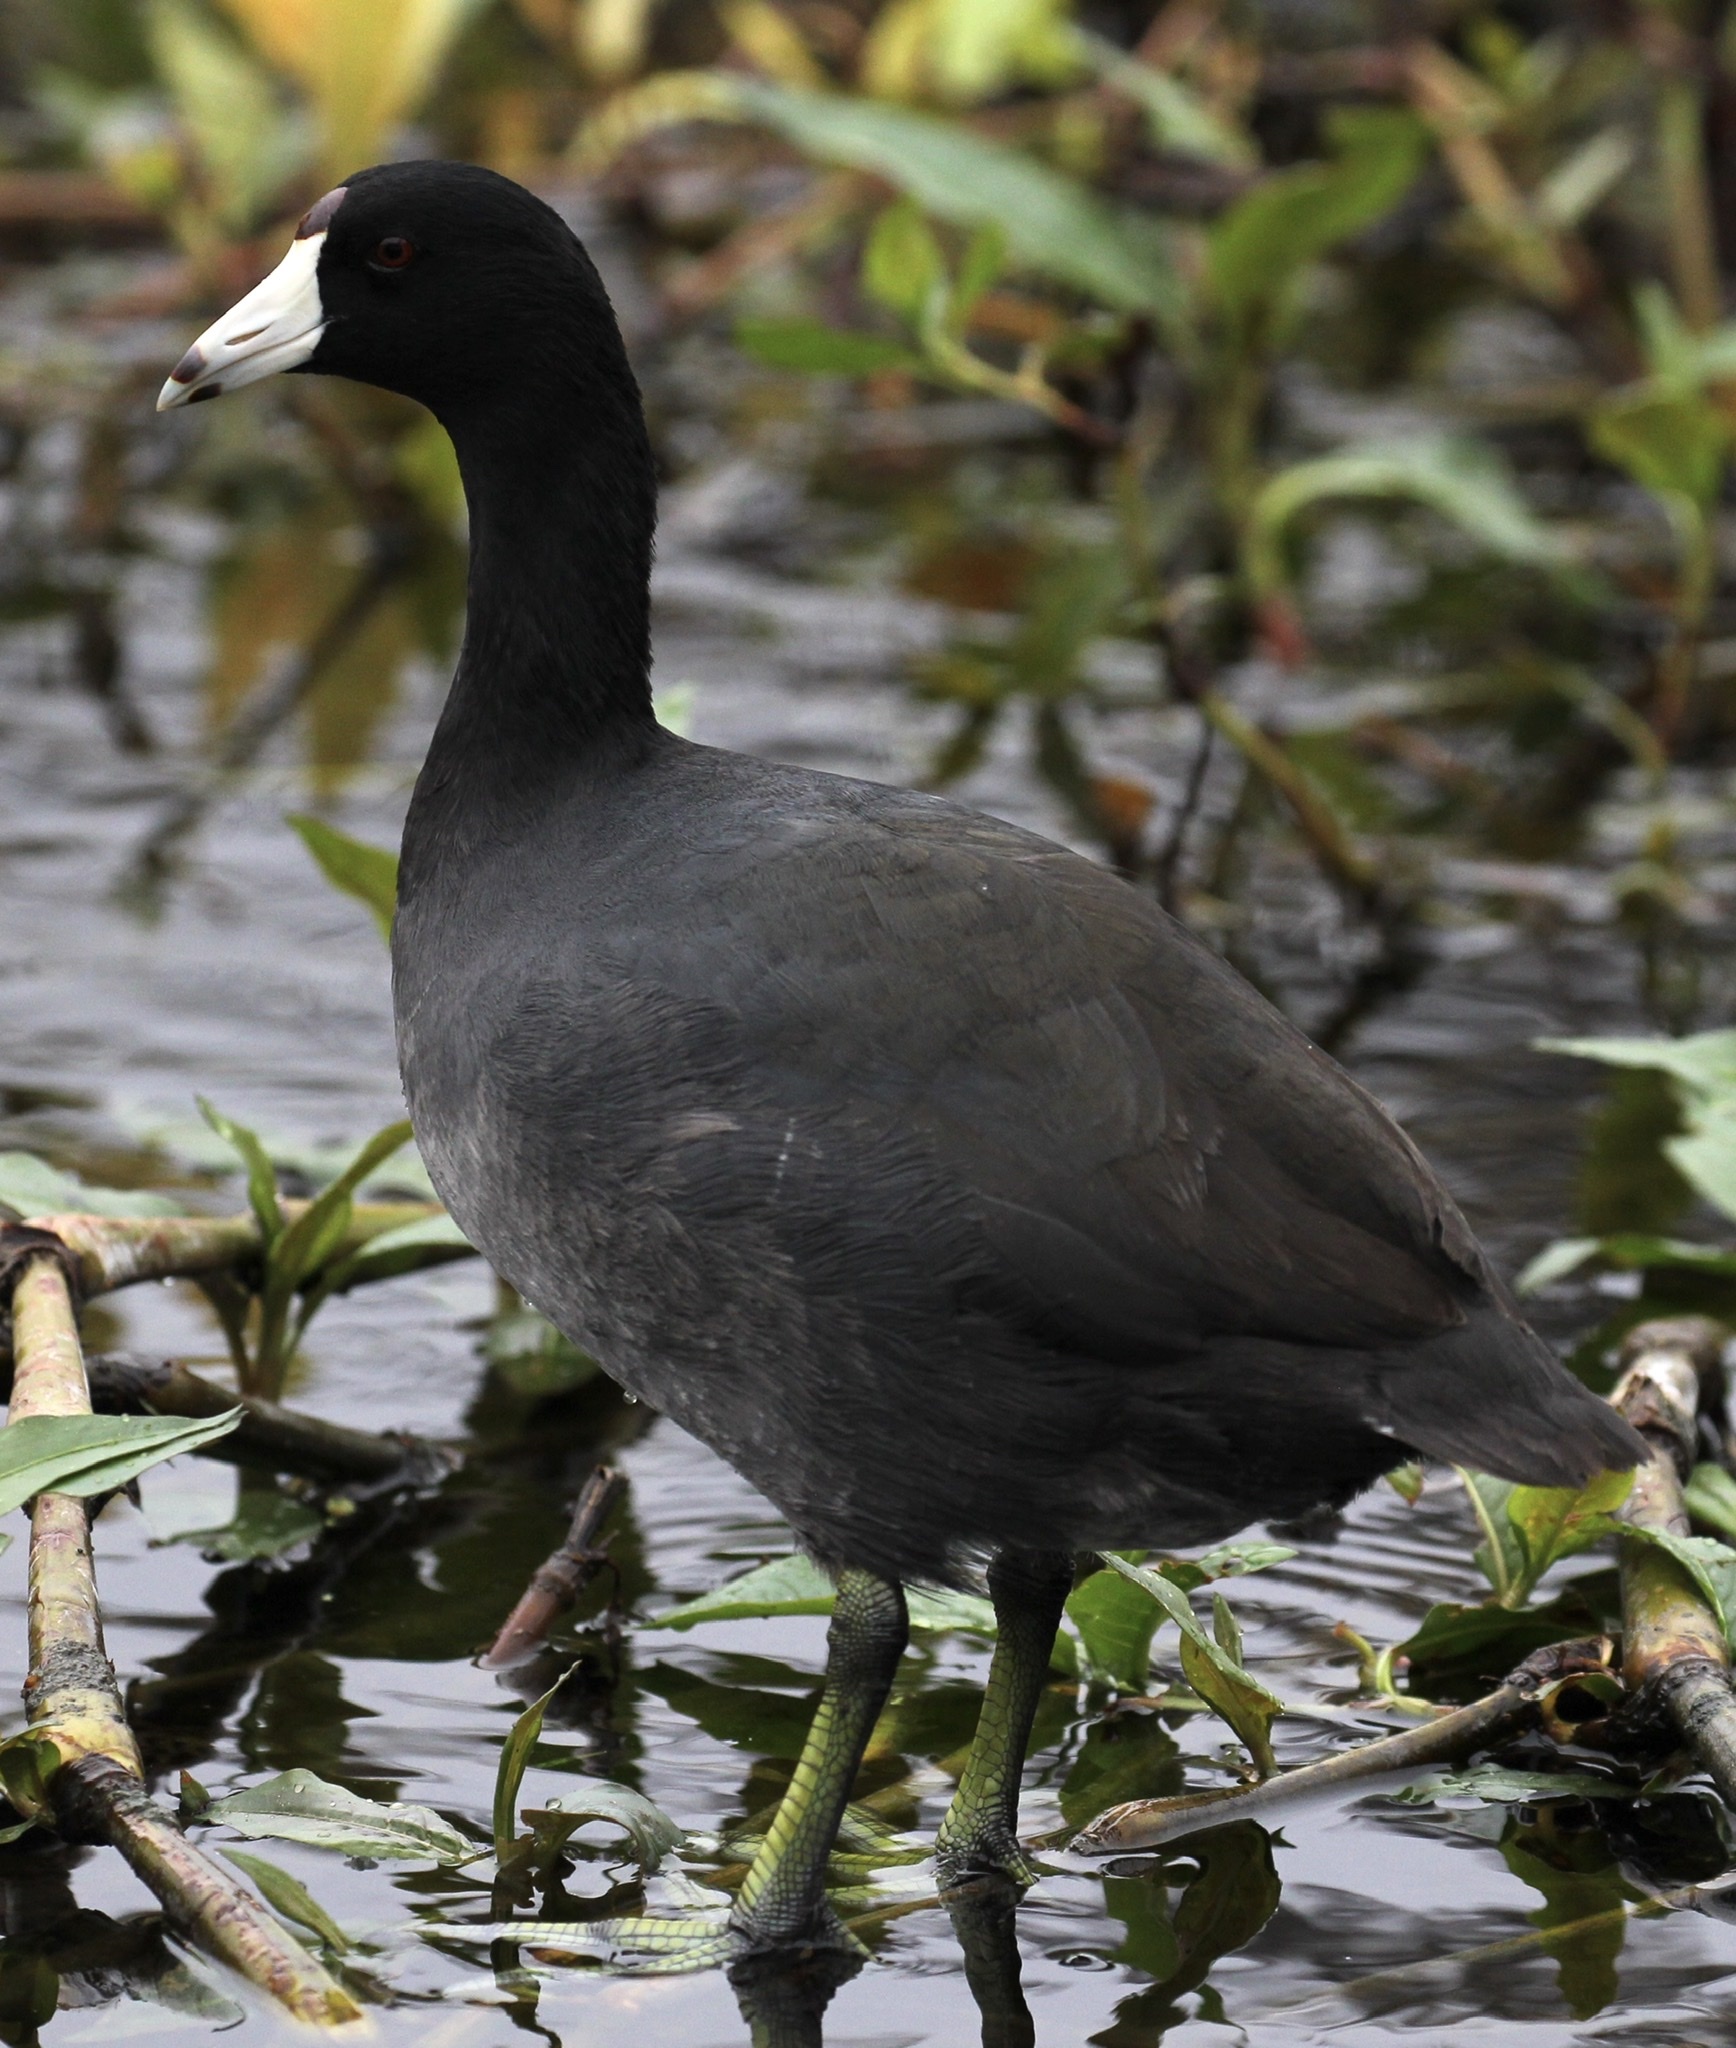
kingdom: Animalia
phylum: Chordata
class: Aves
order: Gruiformes
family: Rallidae
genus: Fulica
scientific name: Fulica americana
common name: American coot
